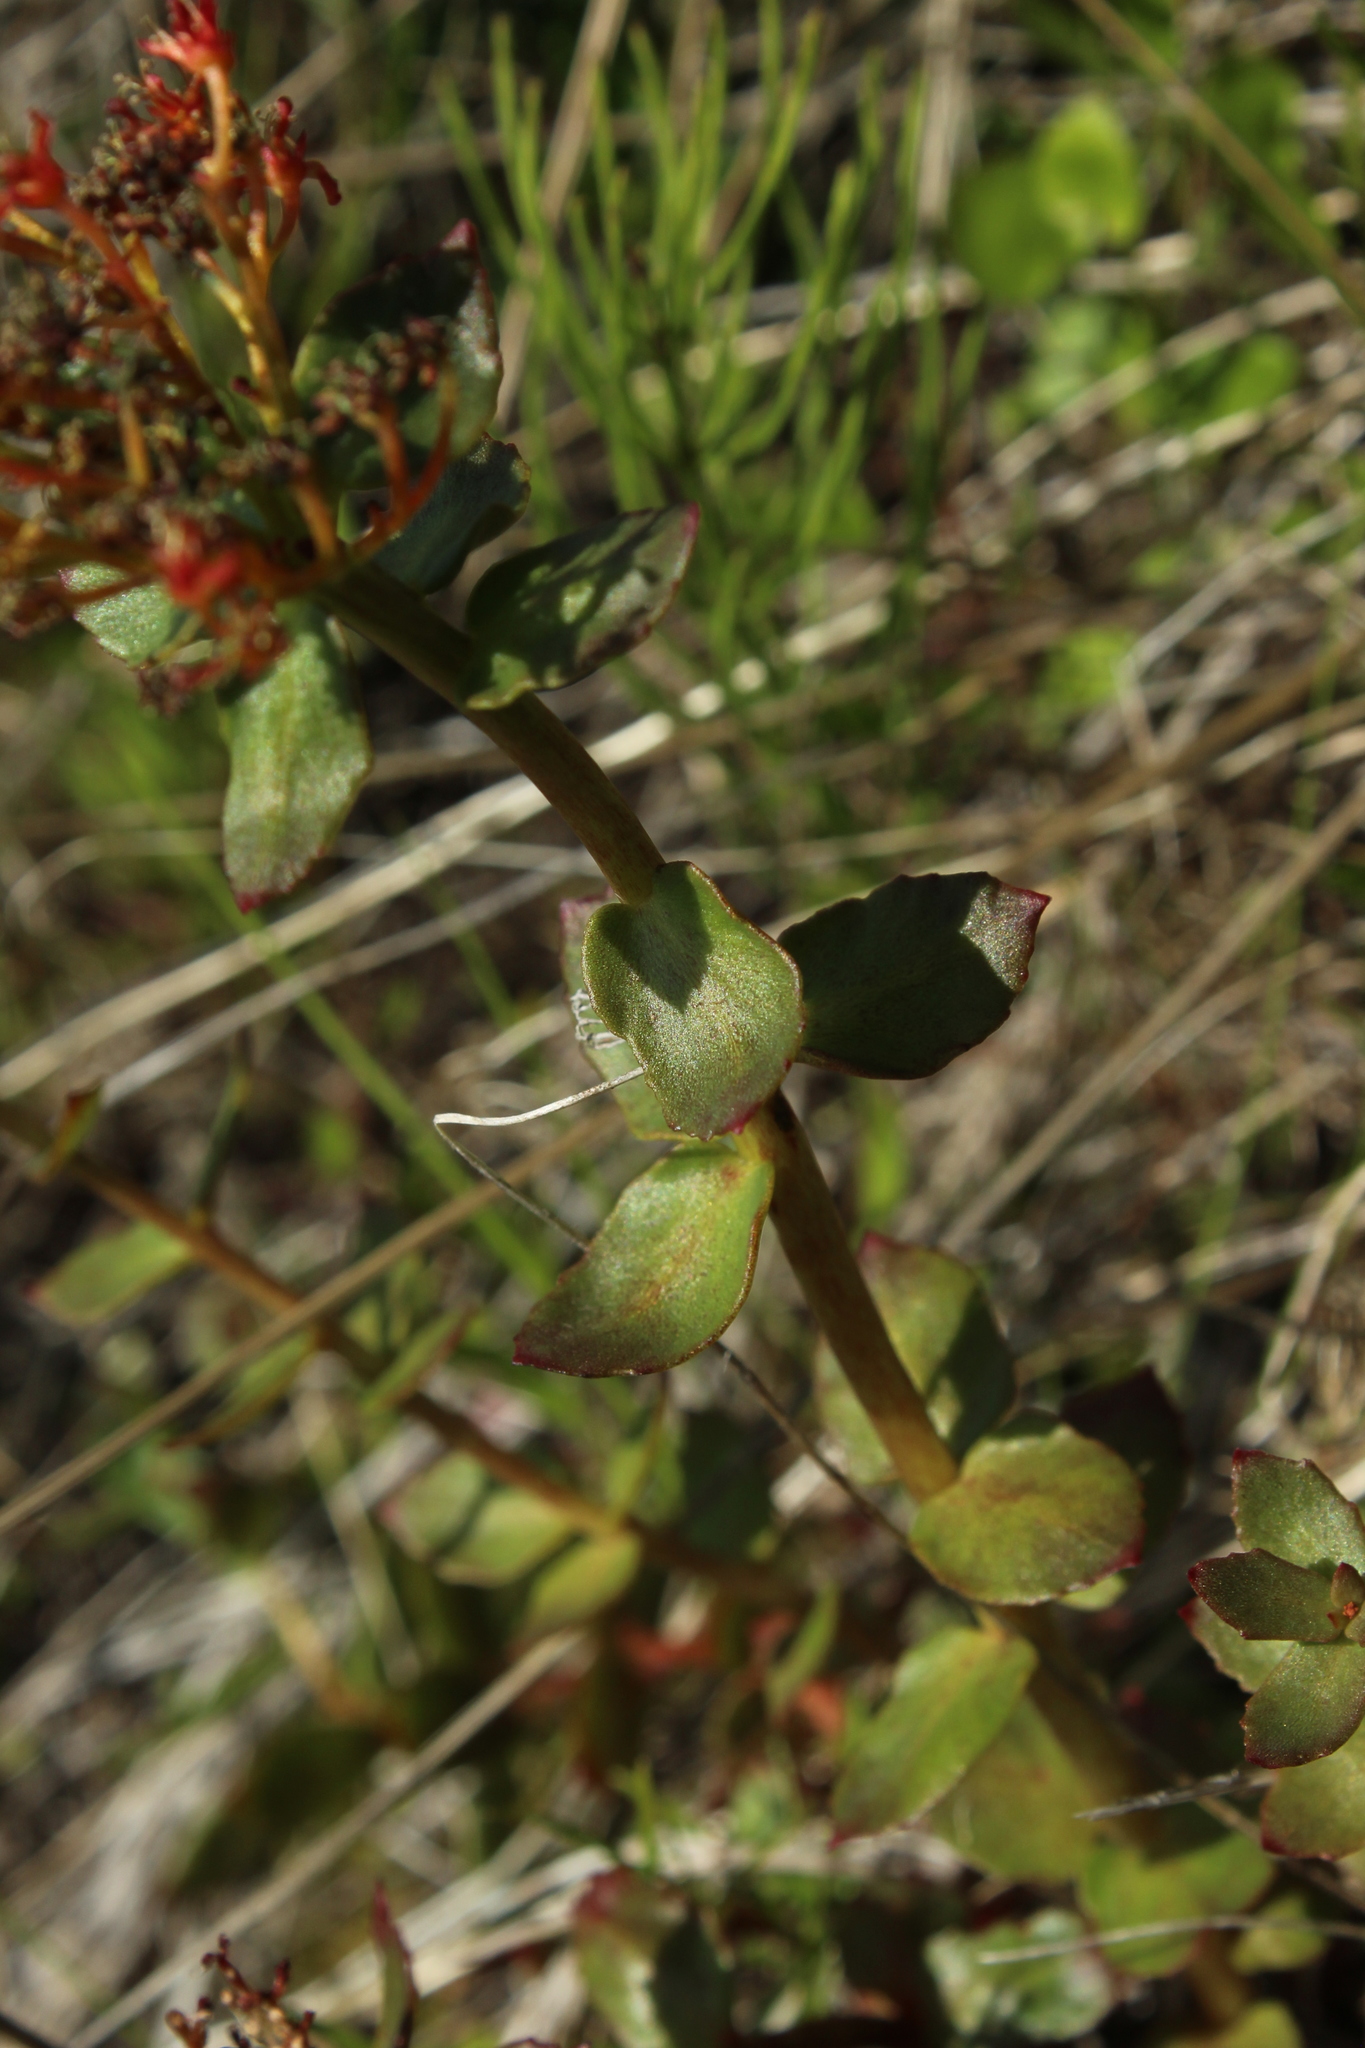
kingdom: Plantae
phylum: Tracheophyta
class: Magnoliopsida
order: Saxifragales
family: Crassulaceae
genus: Rhodiola
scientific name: Rhodiola rosea
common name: Roseroot
